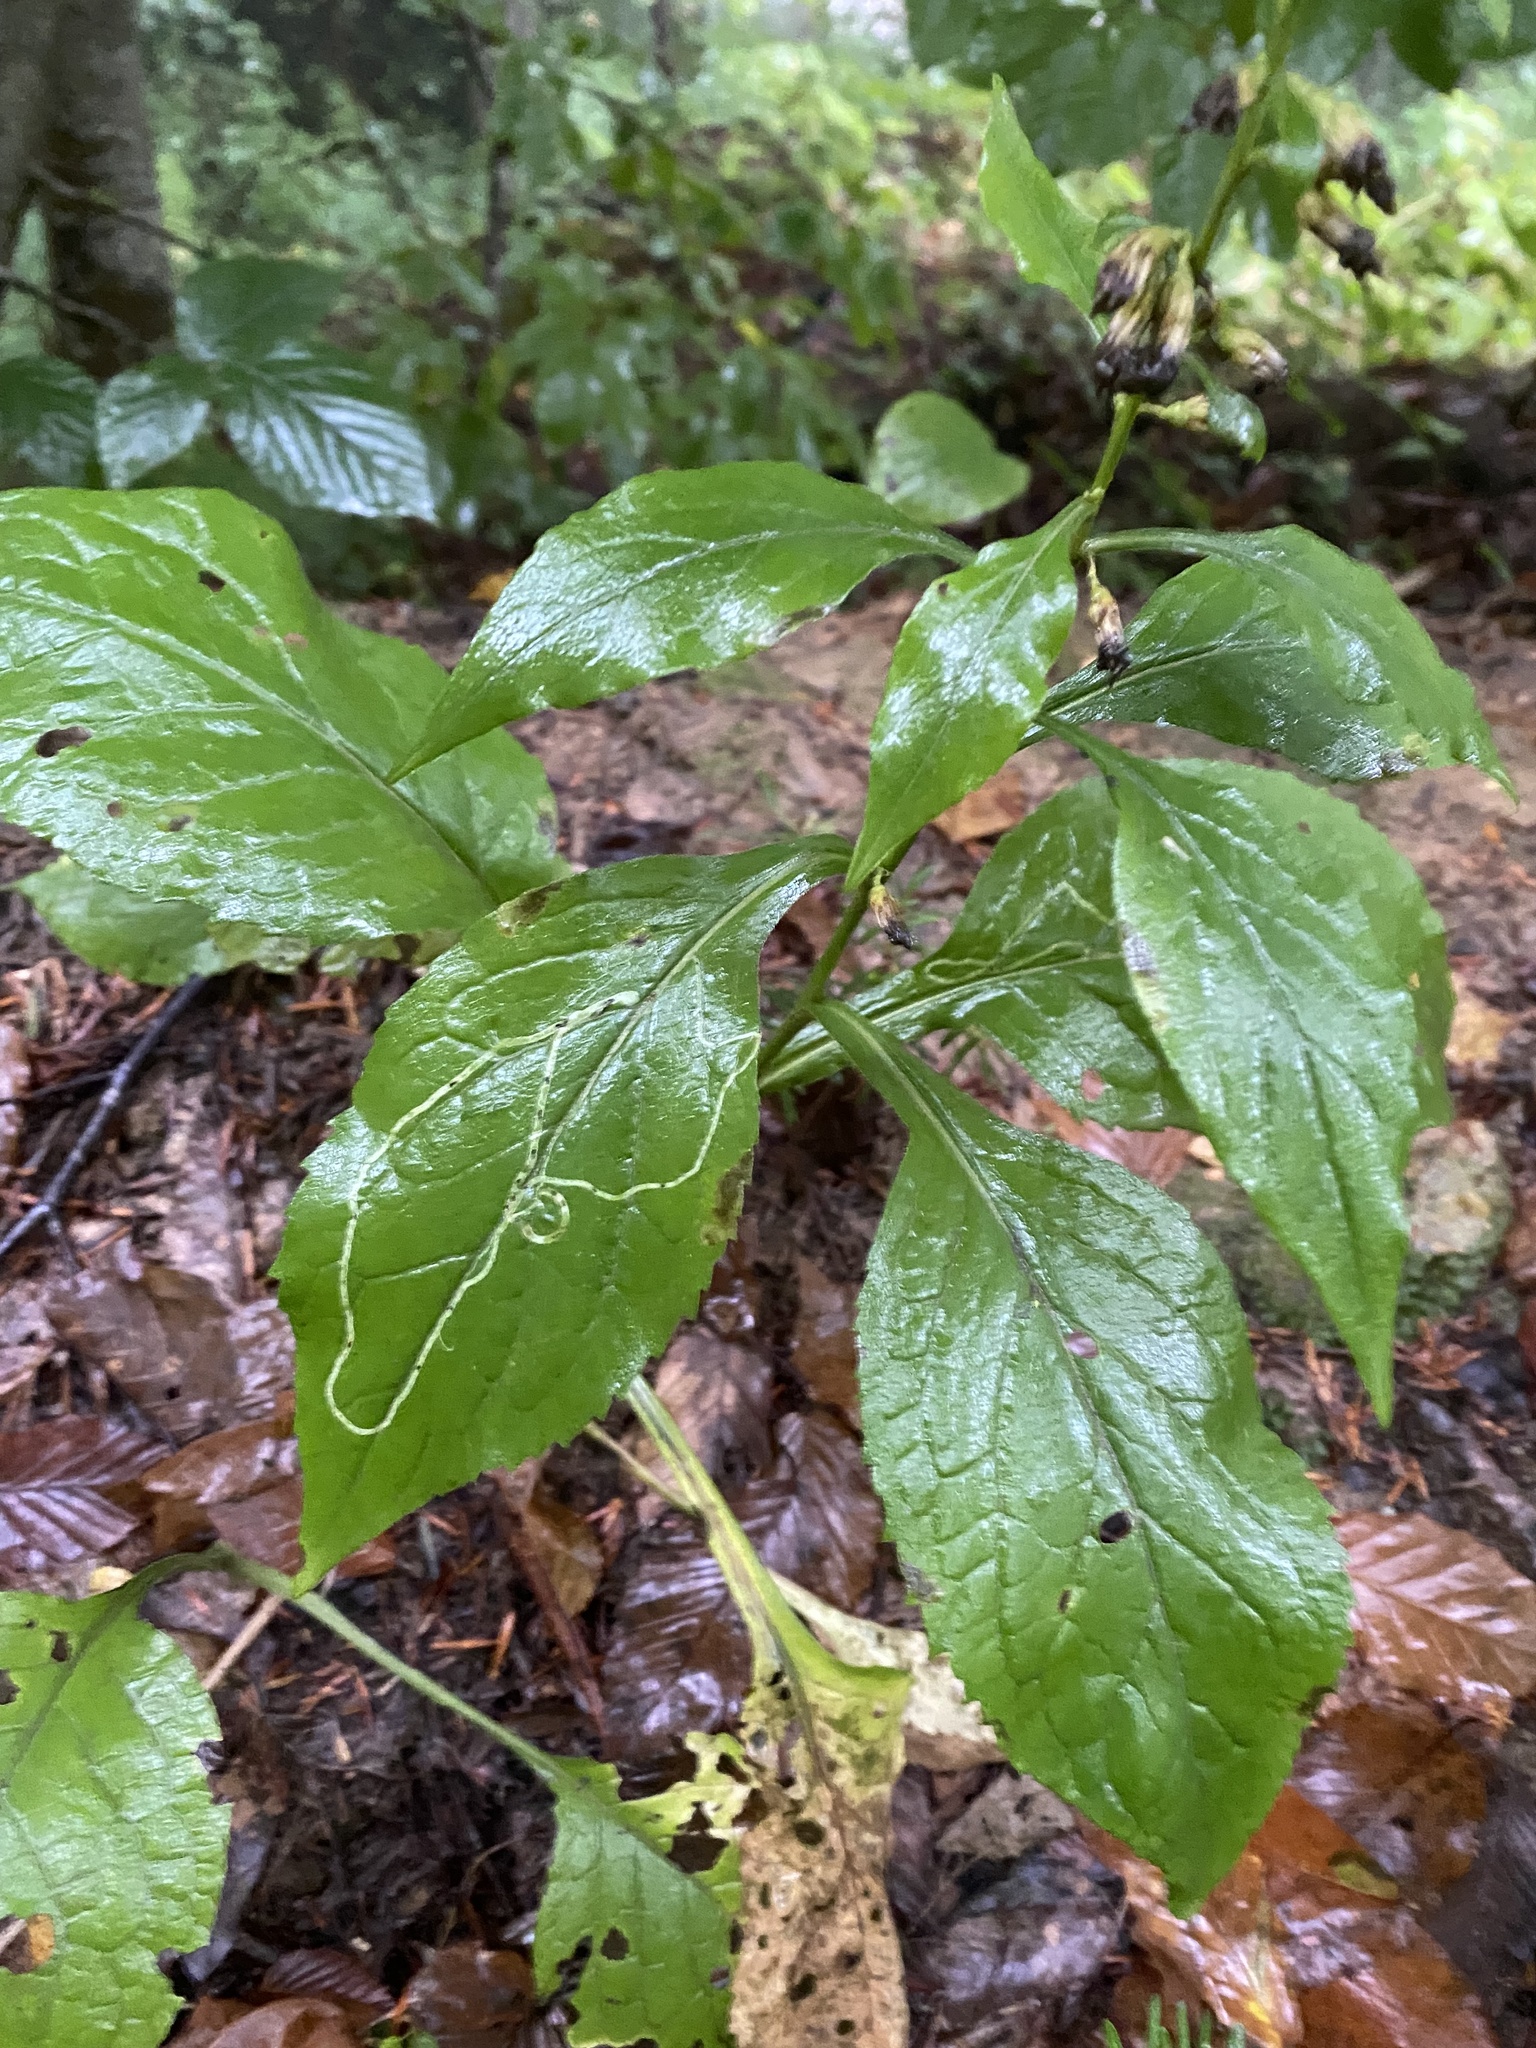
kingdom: Plantae
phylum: Tracheophyta
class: Magnoliopsida
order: Asterales
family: Asteraceae
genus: Solidago
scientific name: Solidago virgaurea
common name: Goldenrod
